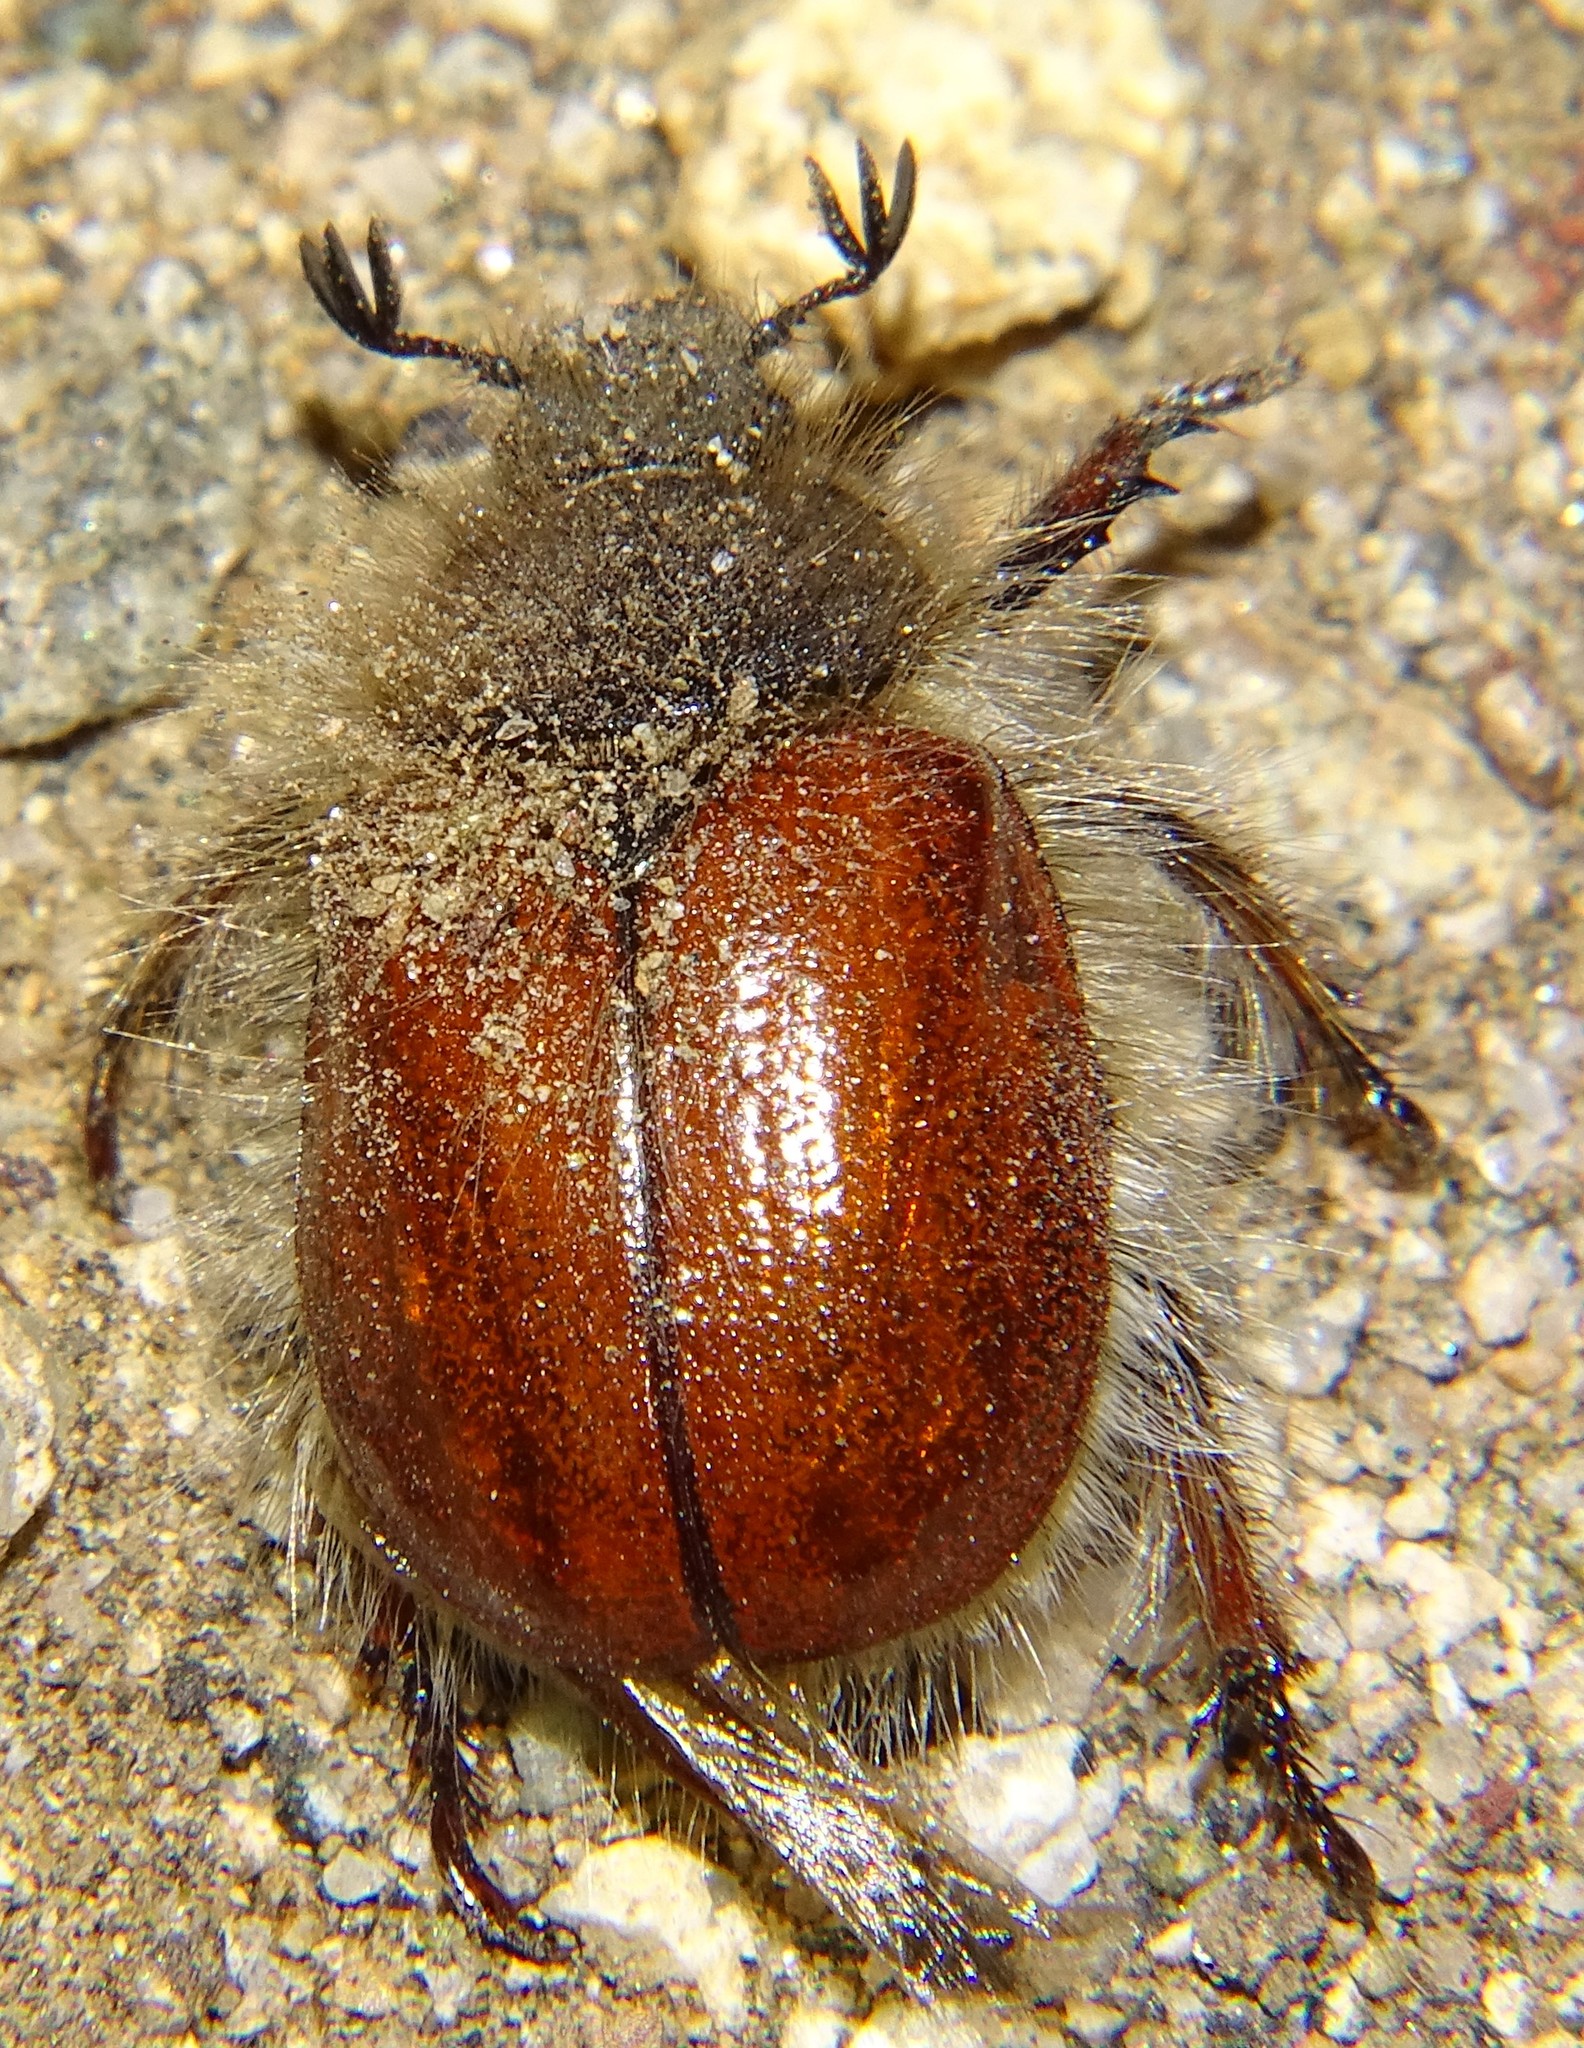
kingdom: Animalia
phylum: Arthropoda
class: Insecta
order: Coleoptera
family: Scarabaeidae
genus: Paracotalpa
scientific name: Paracotalpa ursina
